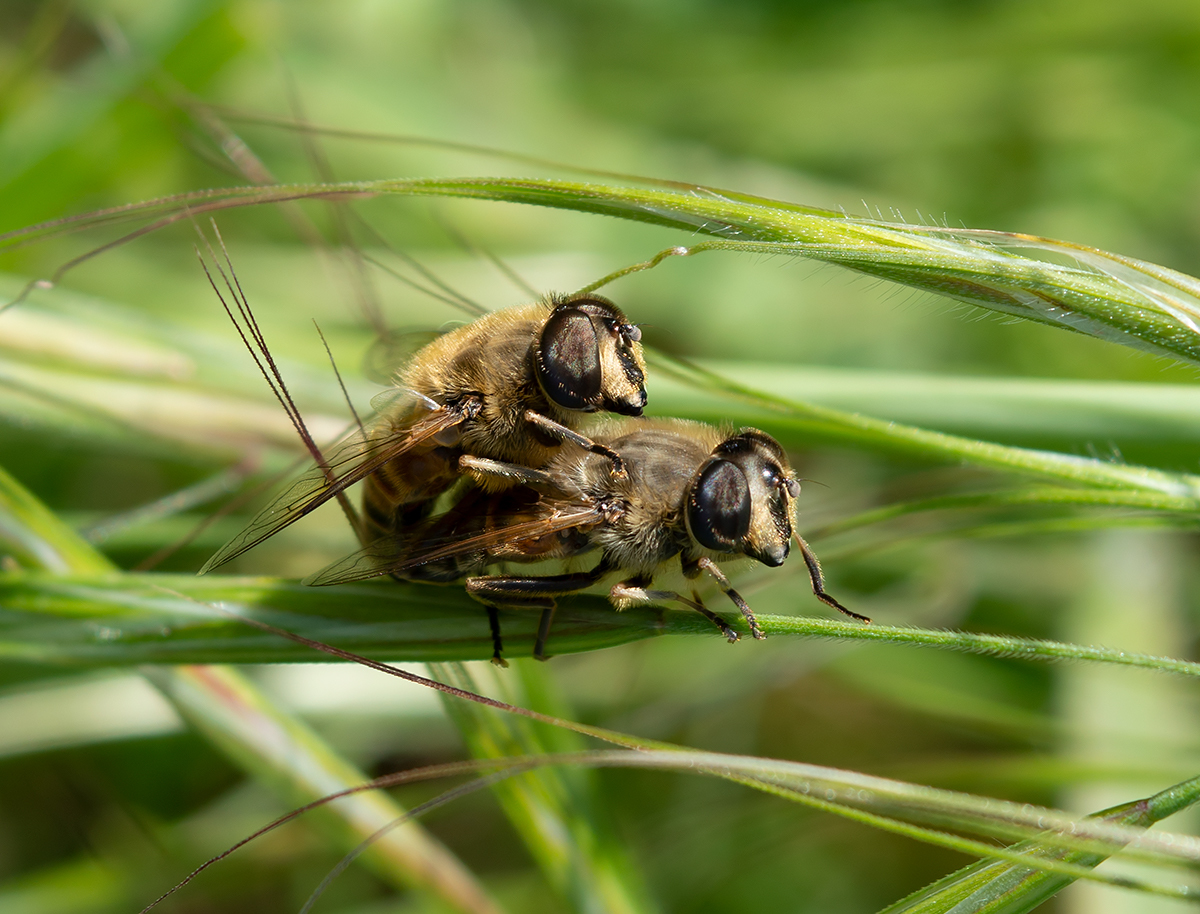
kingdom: Animalia
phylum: Arthropoda
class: Insecta
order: Diptera
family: Syrphidae
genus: Eristalis
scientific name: Eristalis tenax
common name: Drone fly
